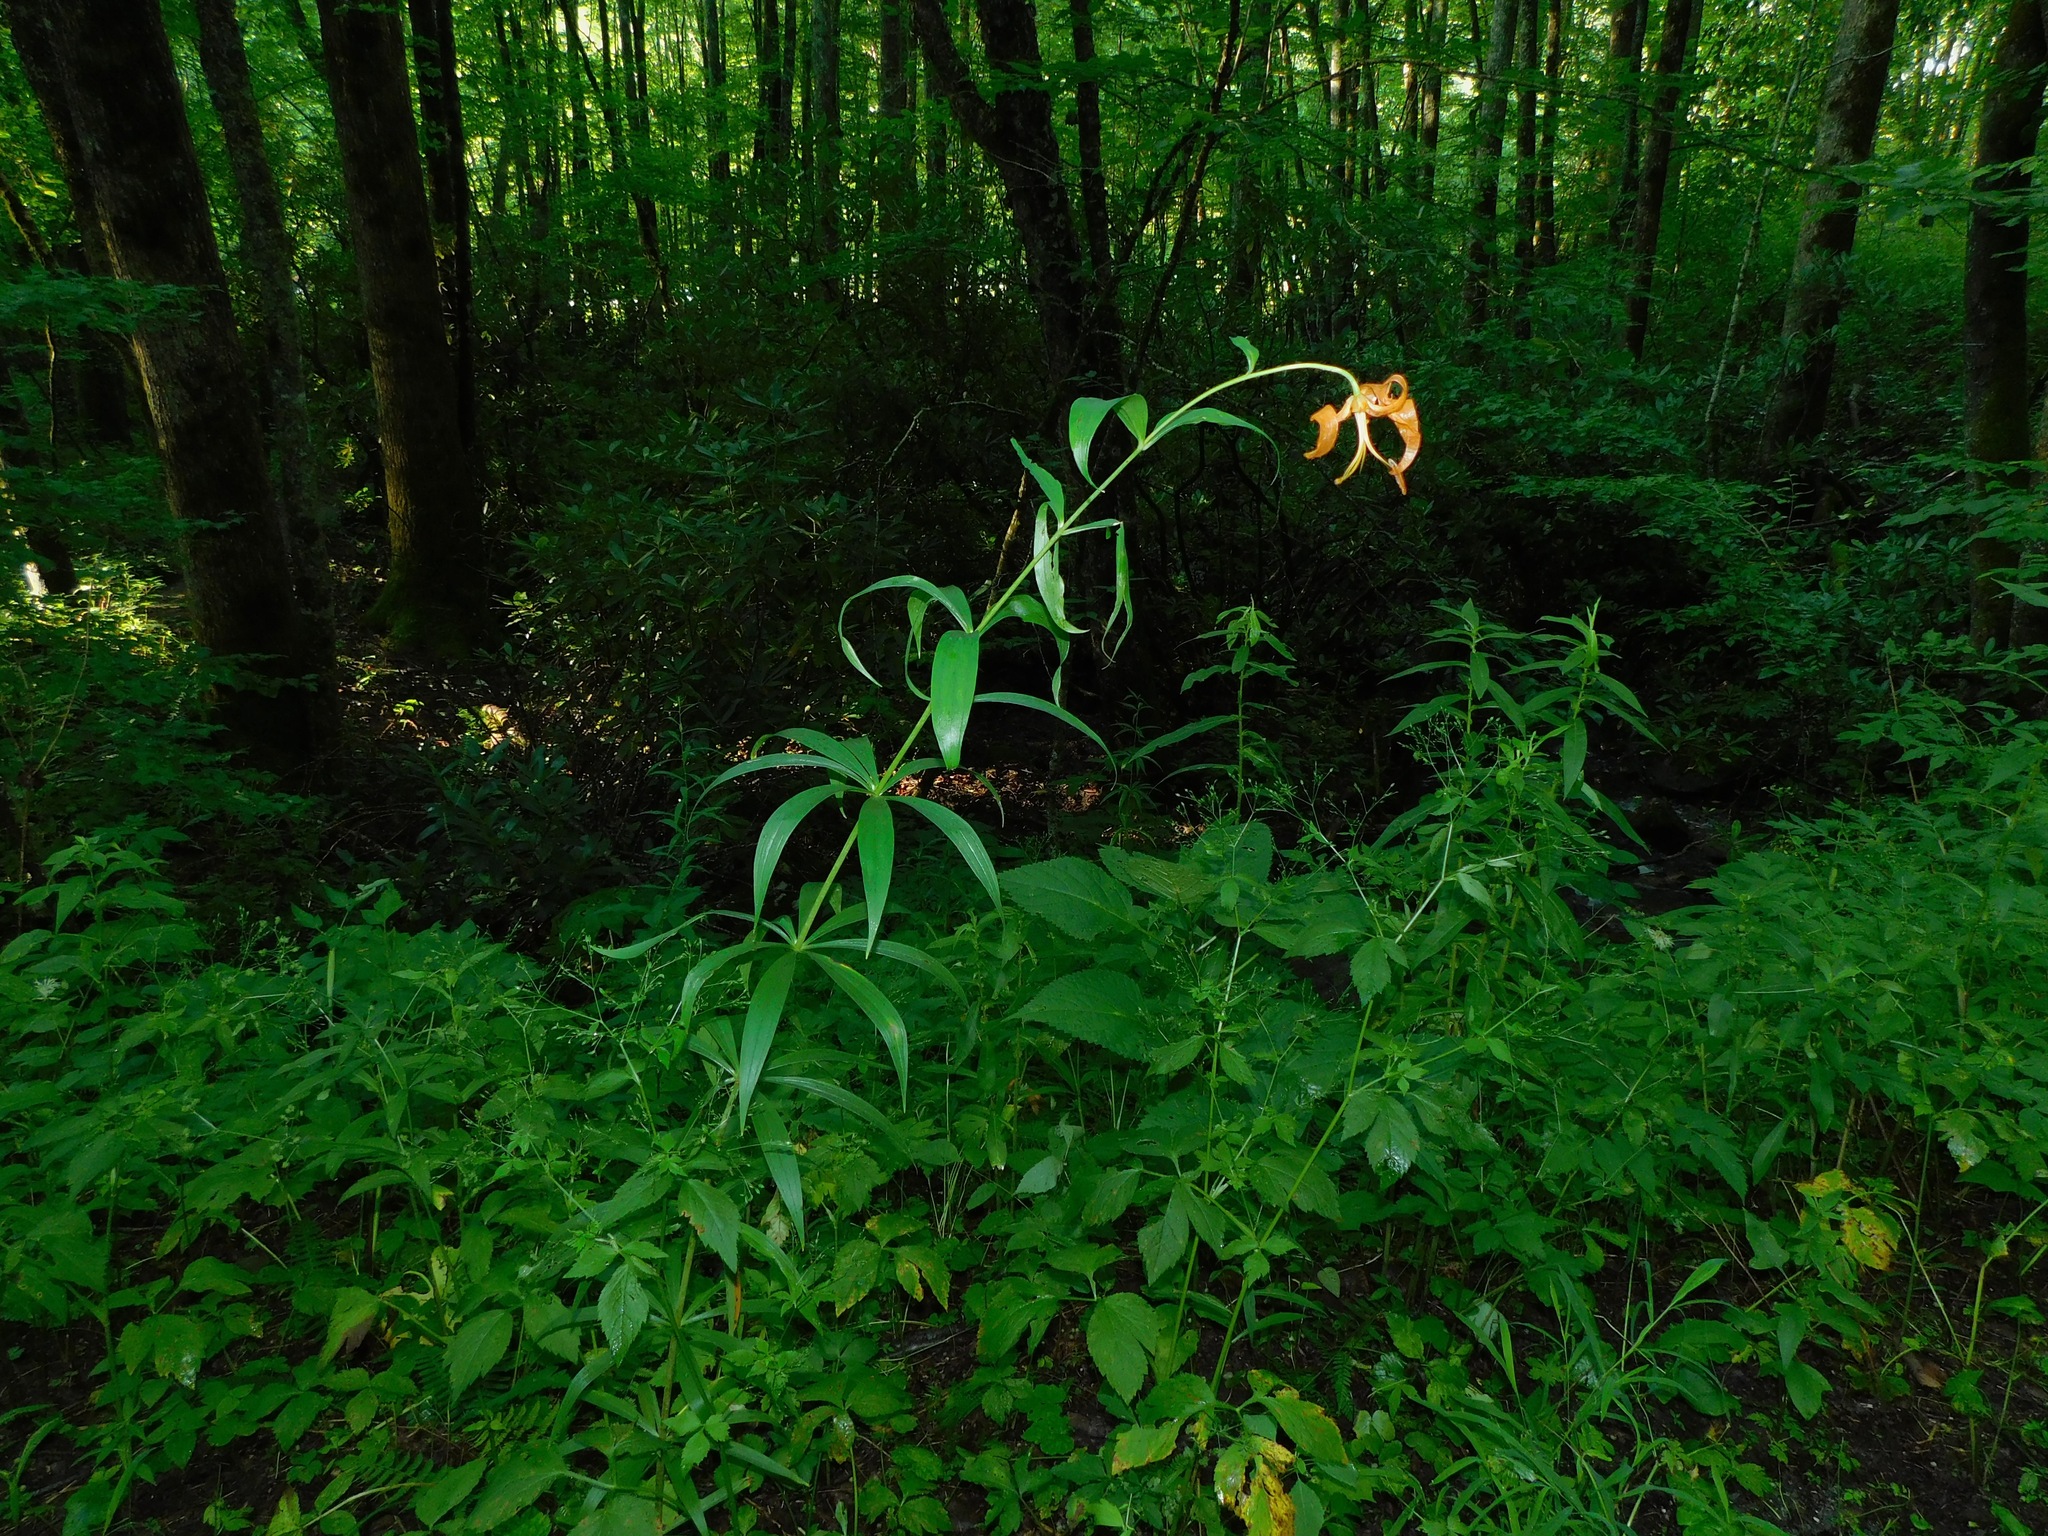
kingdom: Plantae
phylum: Tracheophyta
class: Liliopsida
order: Liliales
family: Liliaceae
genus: Lilium
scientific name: Lilium superbum
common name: American turk's-cap lily
